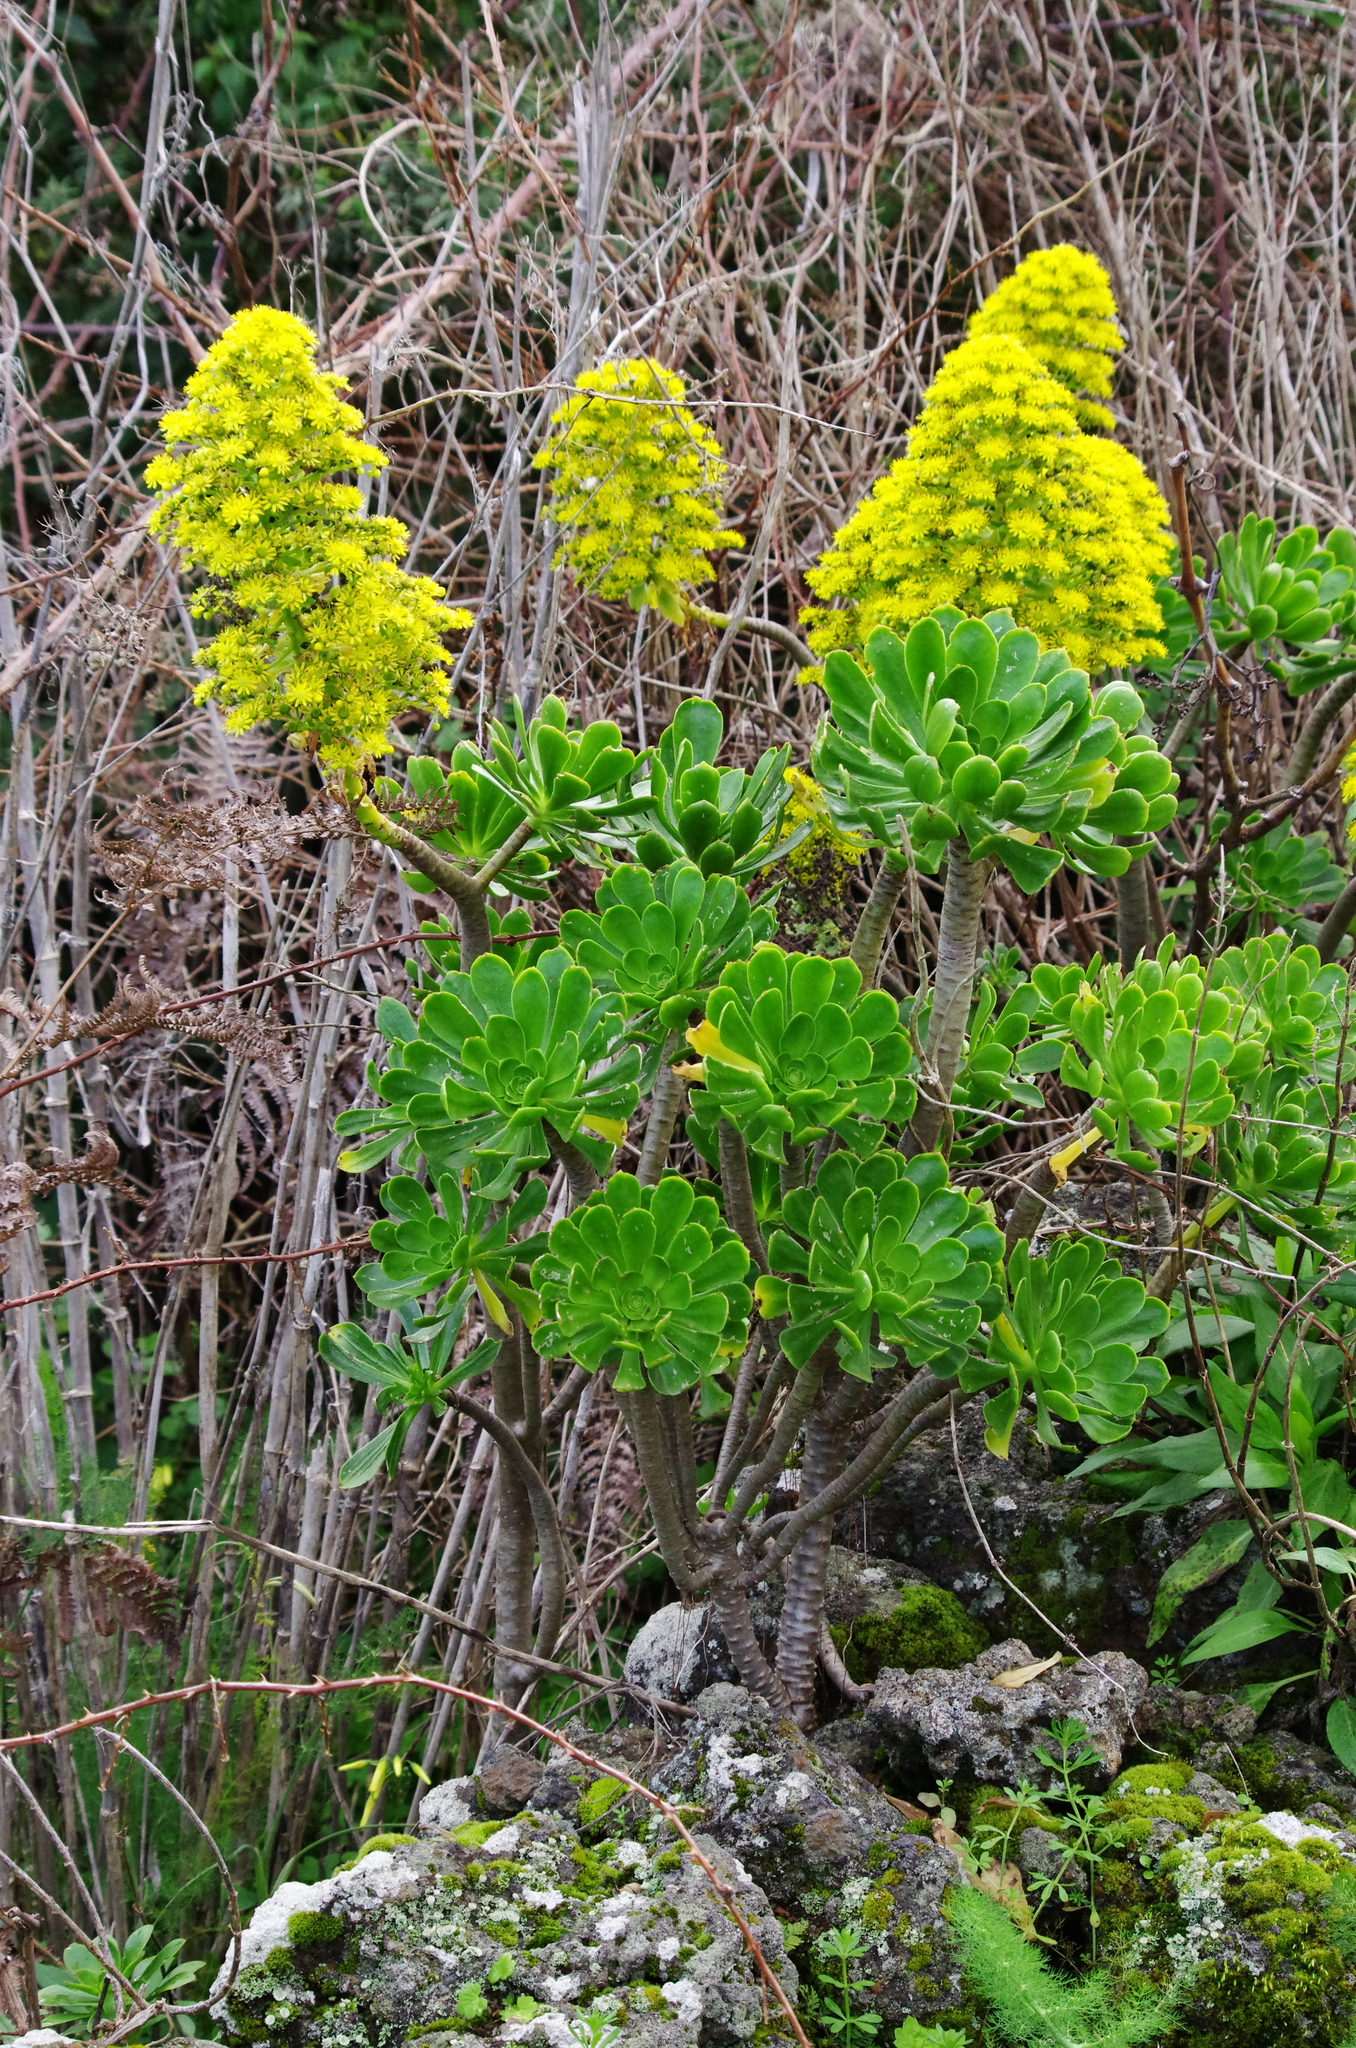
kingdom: Plantae
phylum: Tracheophyta
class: Magnoliopsida
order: Saxifragales
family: Crassulaceae
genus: Aeonium
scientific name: Aeonium arboreum
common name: Tree aeonium
